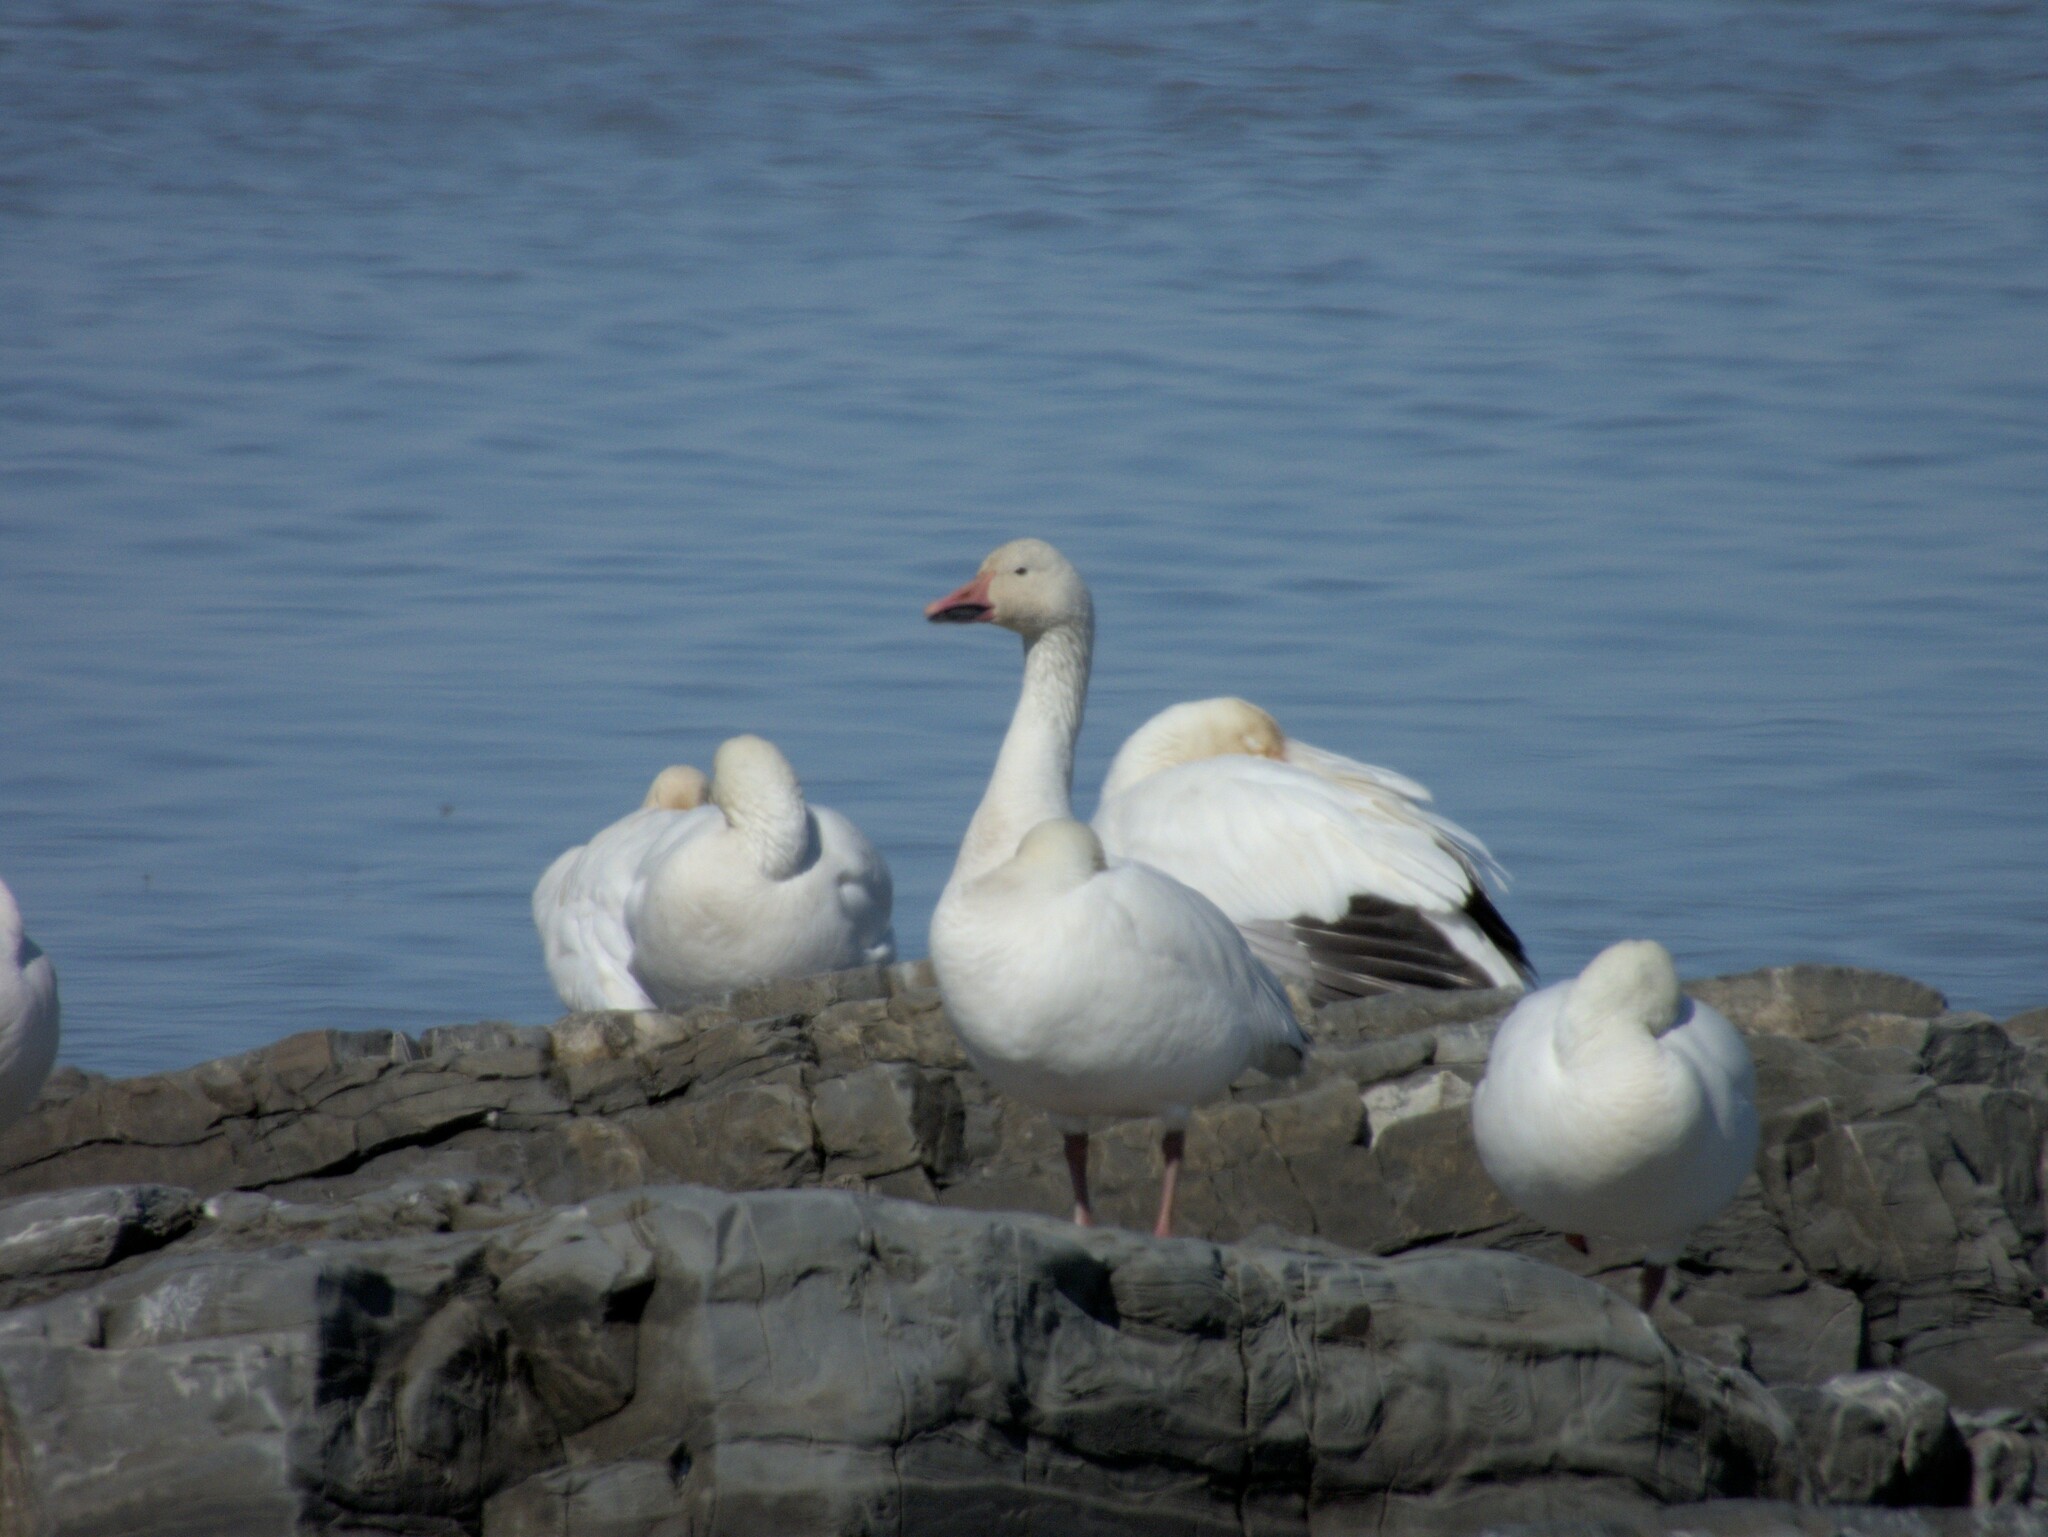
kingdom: Animalia
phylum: Chordata
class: Aves
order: Anseriformes
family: Anatidae
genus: Anser
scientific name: Anser caerulescens
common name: Snow goose
